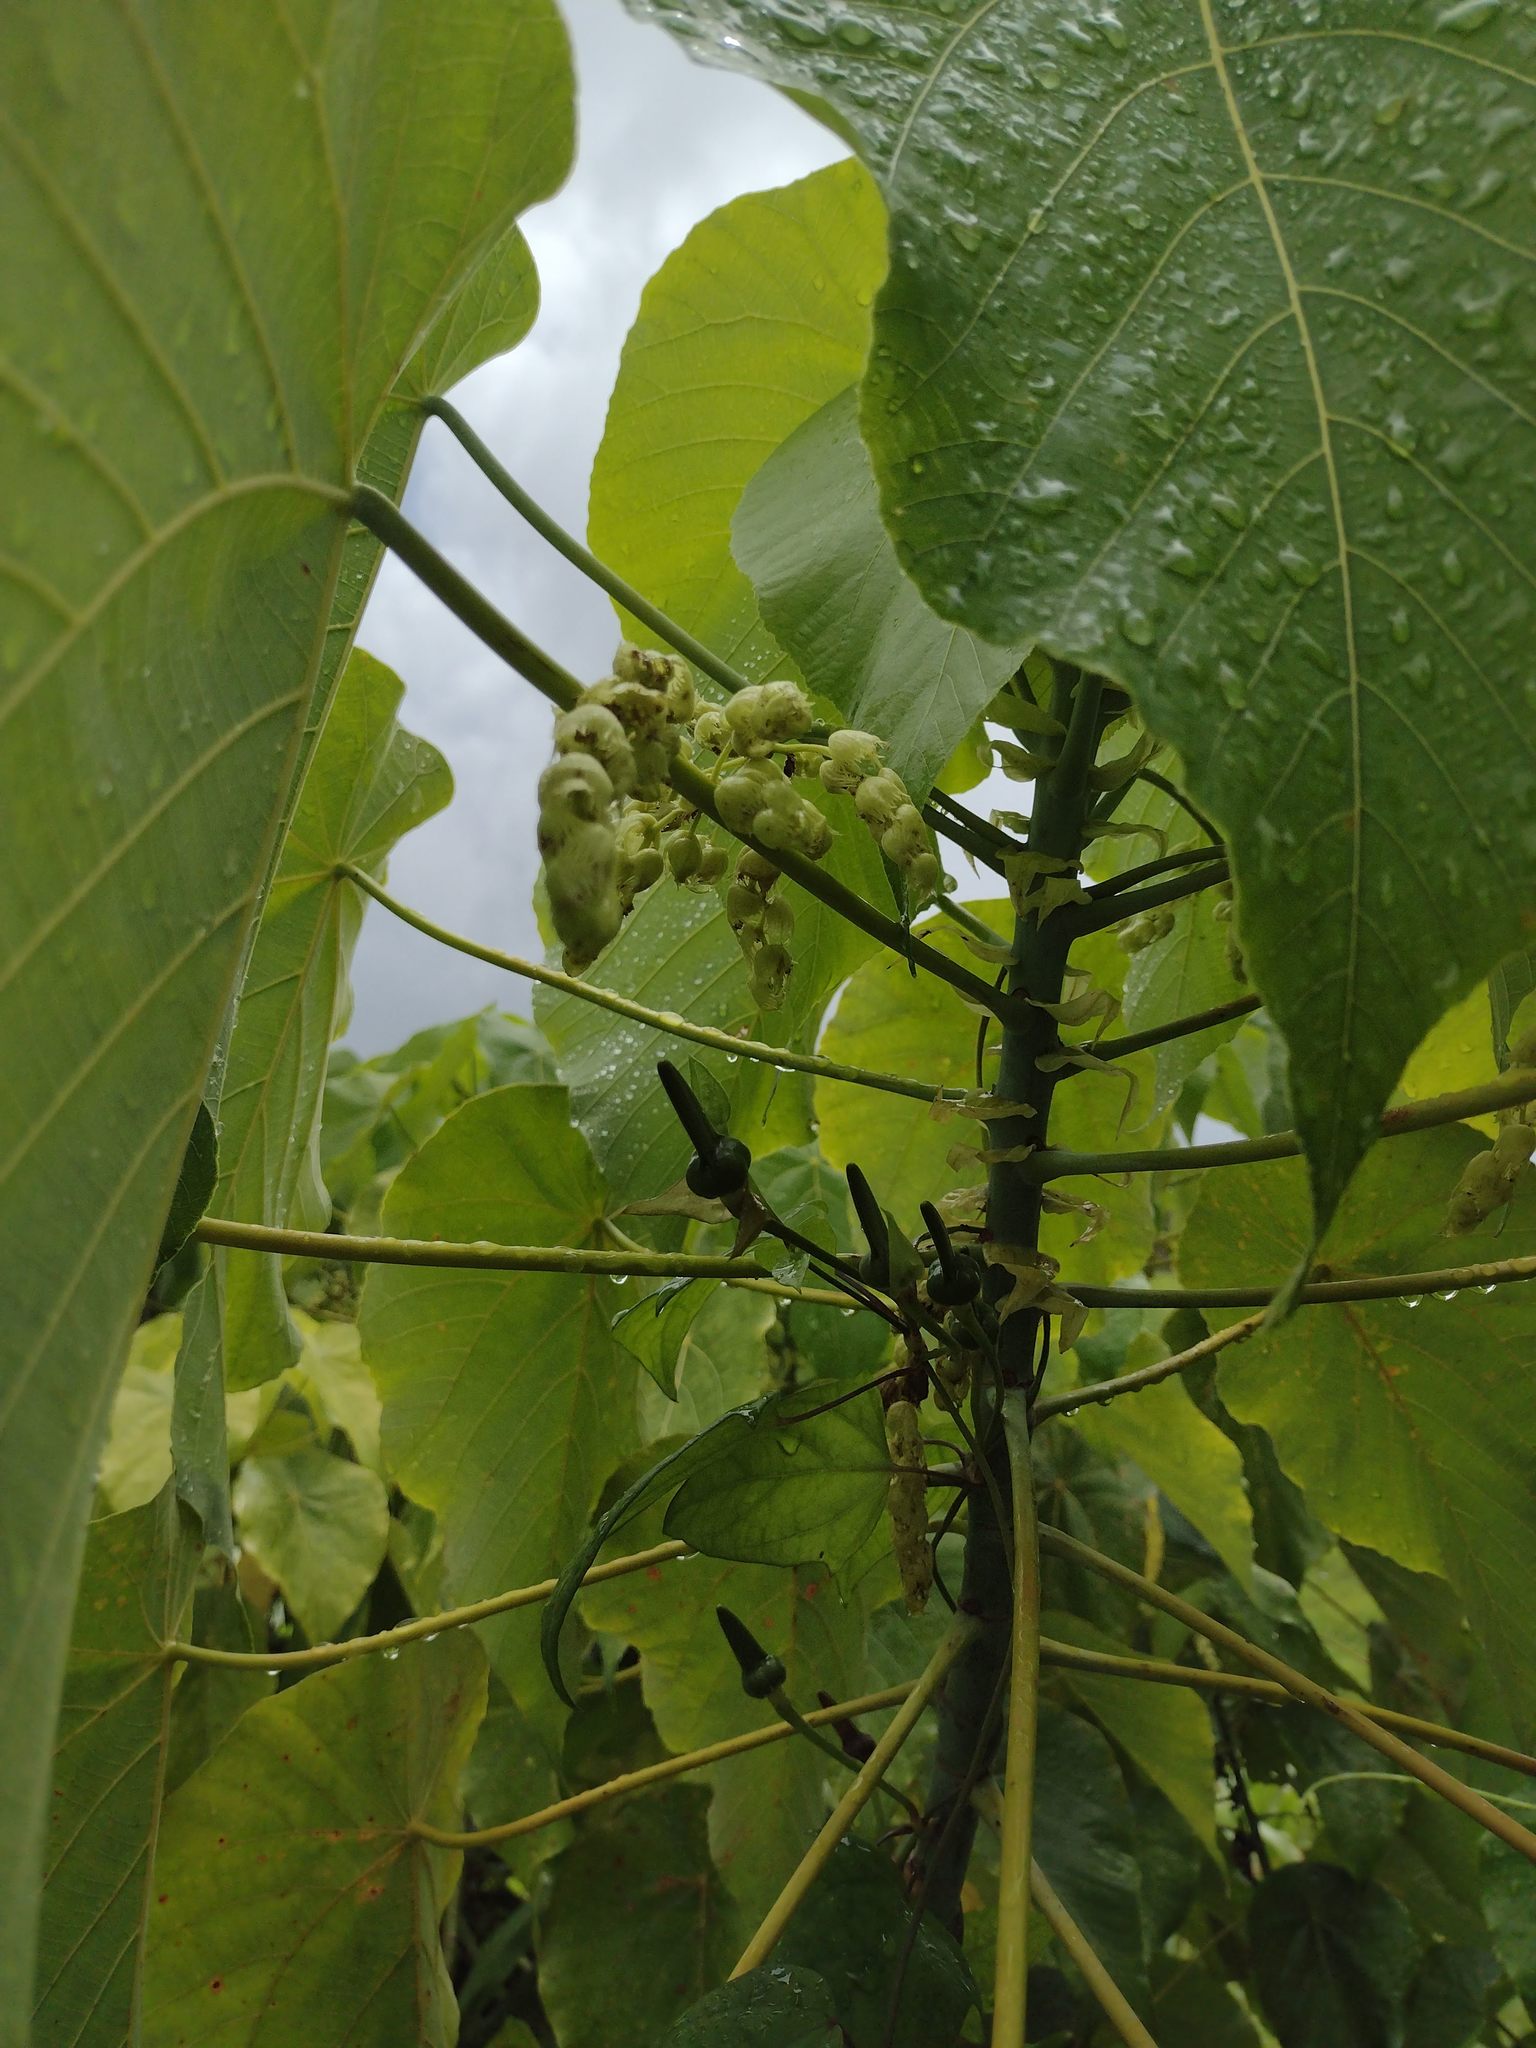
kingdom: Plantae
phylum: Tracheophyta
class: Magnoliopsida
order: Malpighiales
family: Euphorbiaceae
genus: Macaranga
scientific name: Macaranga tanarius
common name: Parasol leaf tree
